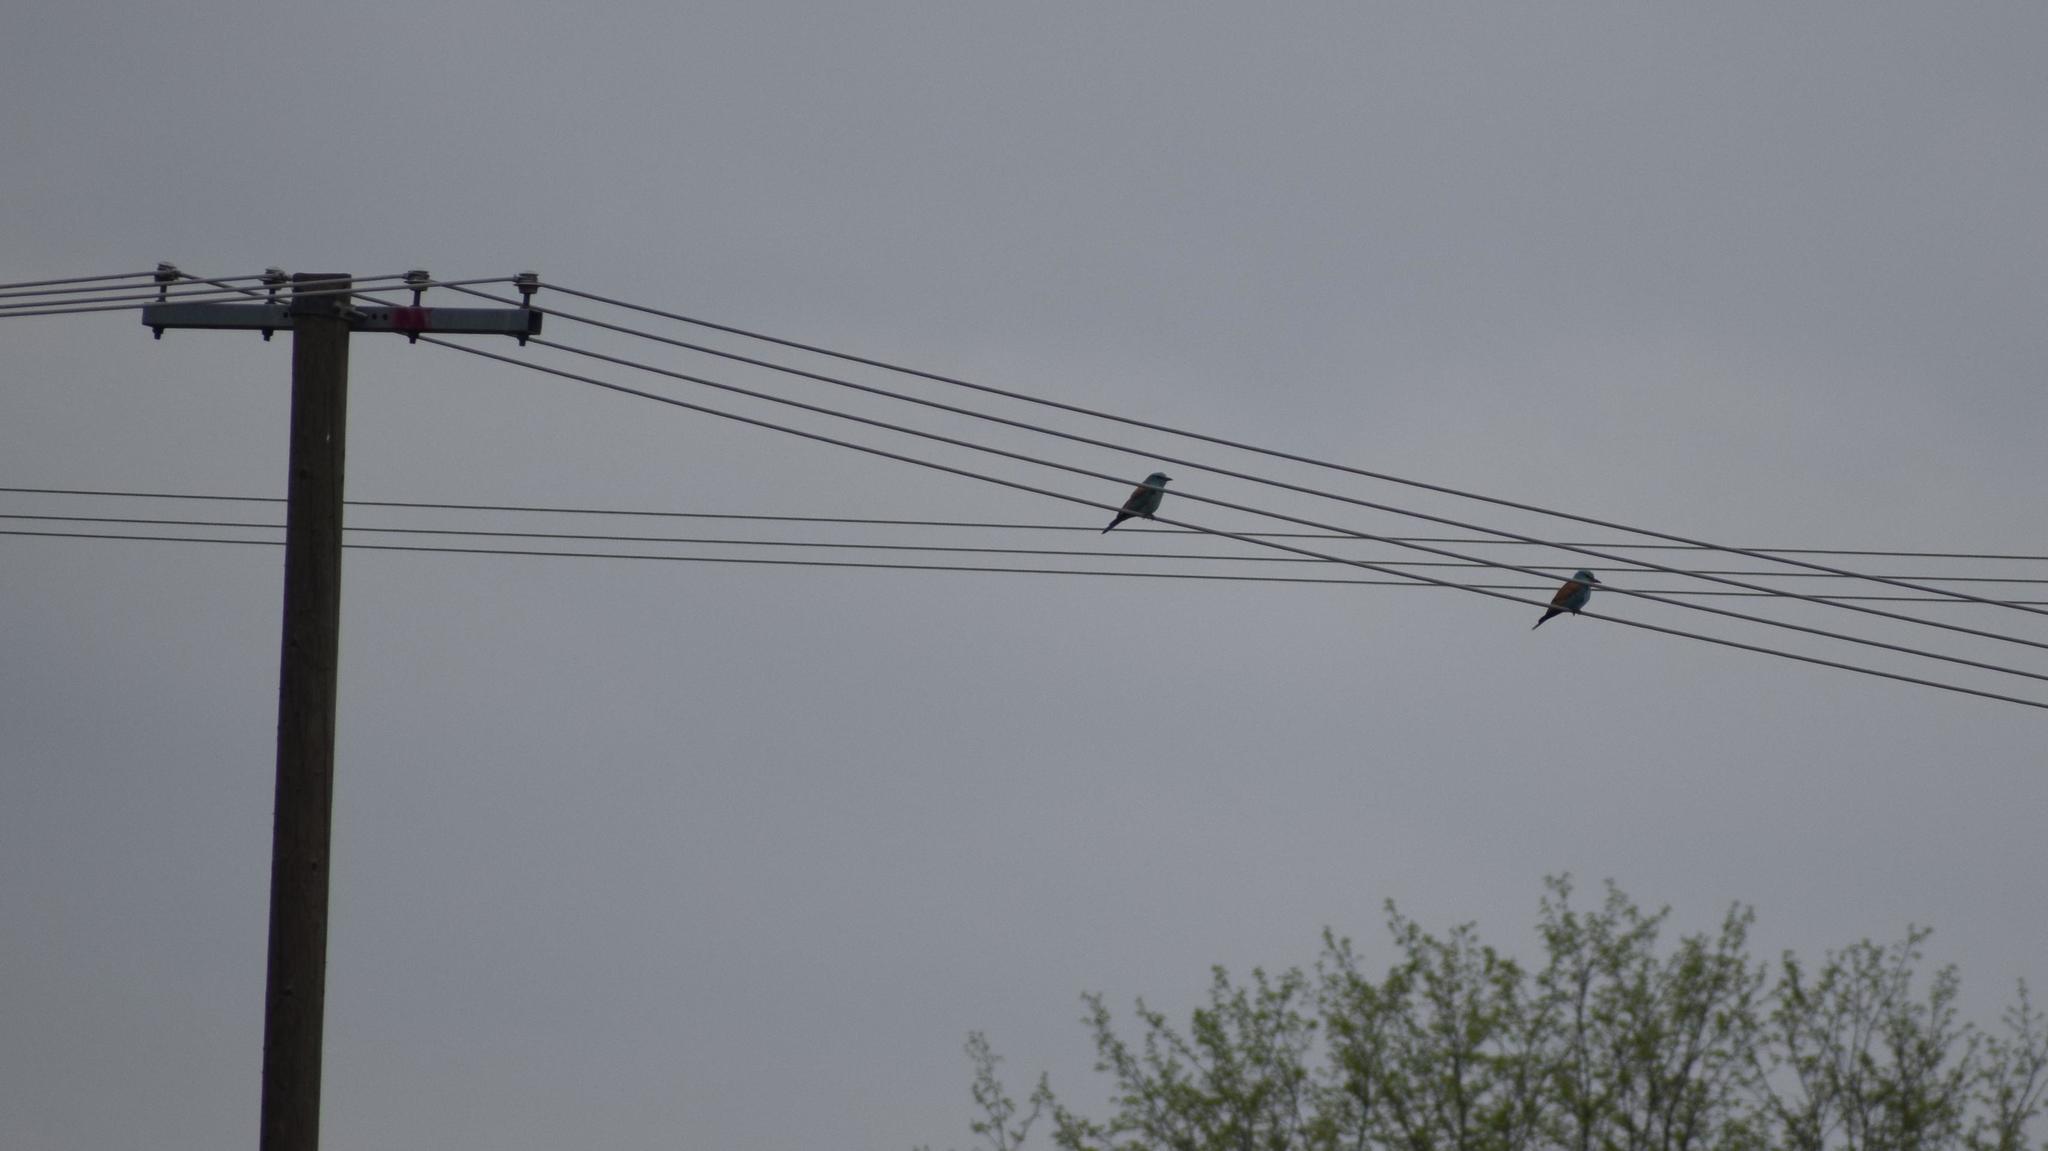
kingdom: Animalia
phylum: Chordata
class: Aves
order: Coraciiformes
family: Coraciidae
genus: Coracias
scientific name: Coracias garrulus
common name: European roller
